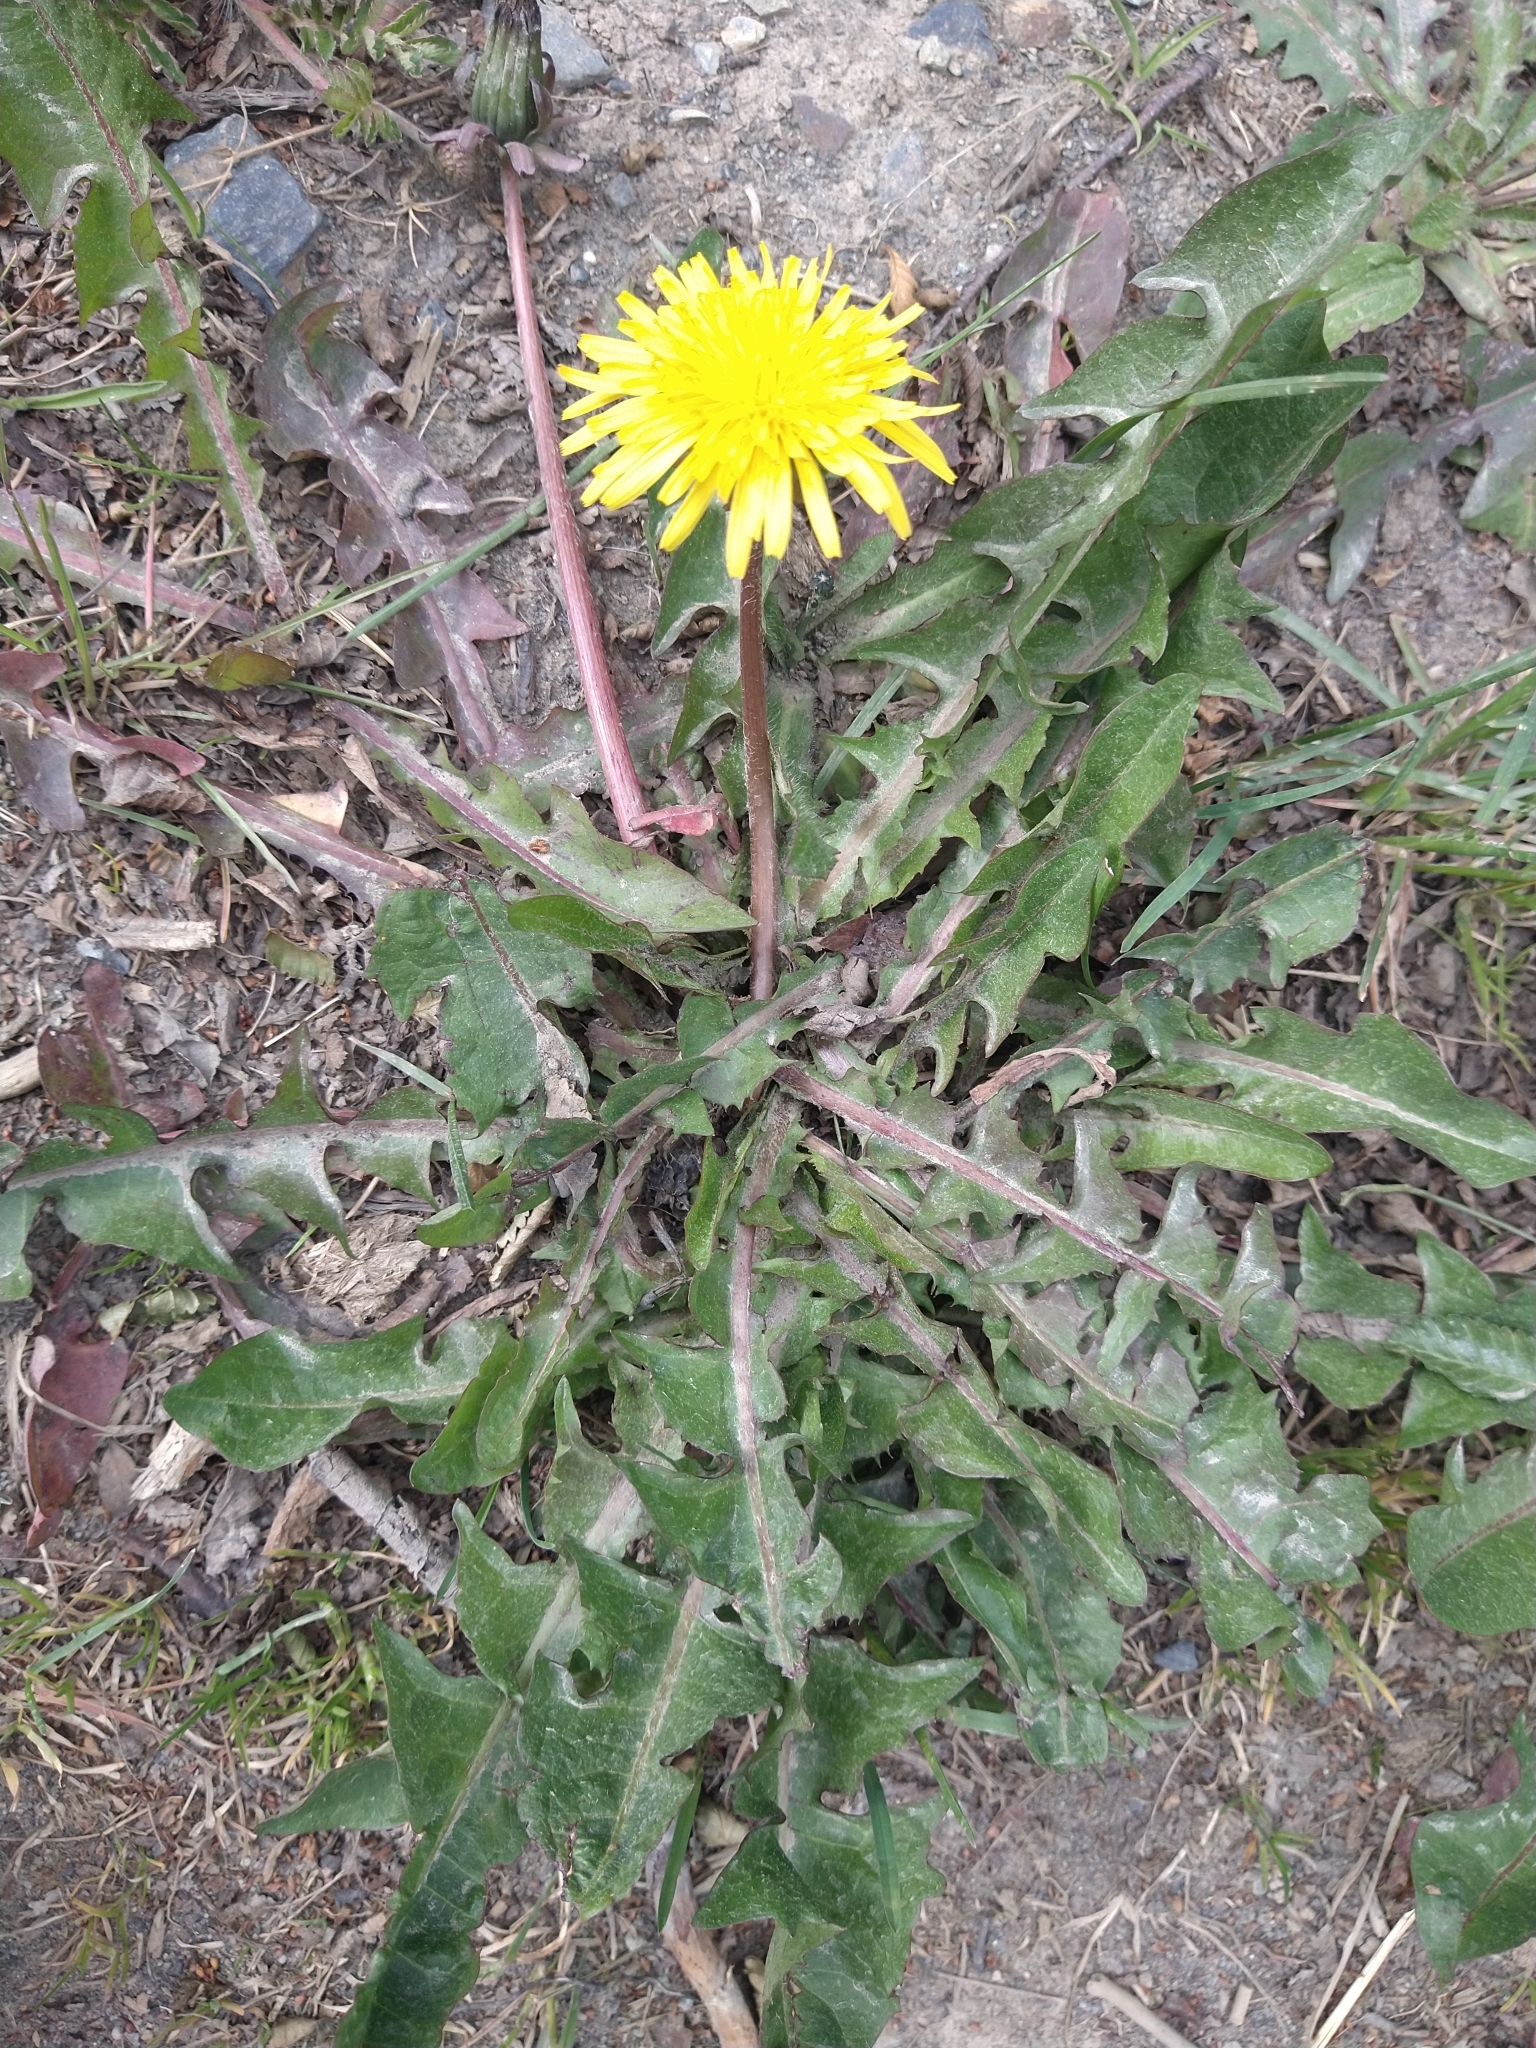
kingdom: Plantae
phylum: Tracheophyta
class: Magnoliopsida
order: Asterales
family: Asteraceae
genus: Taraxacum
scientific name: Taraxacum officinale
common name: Common dandelion
